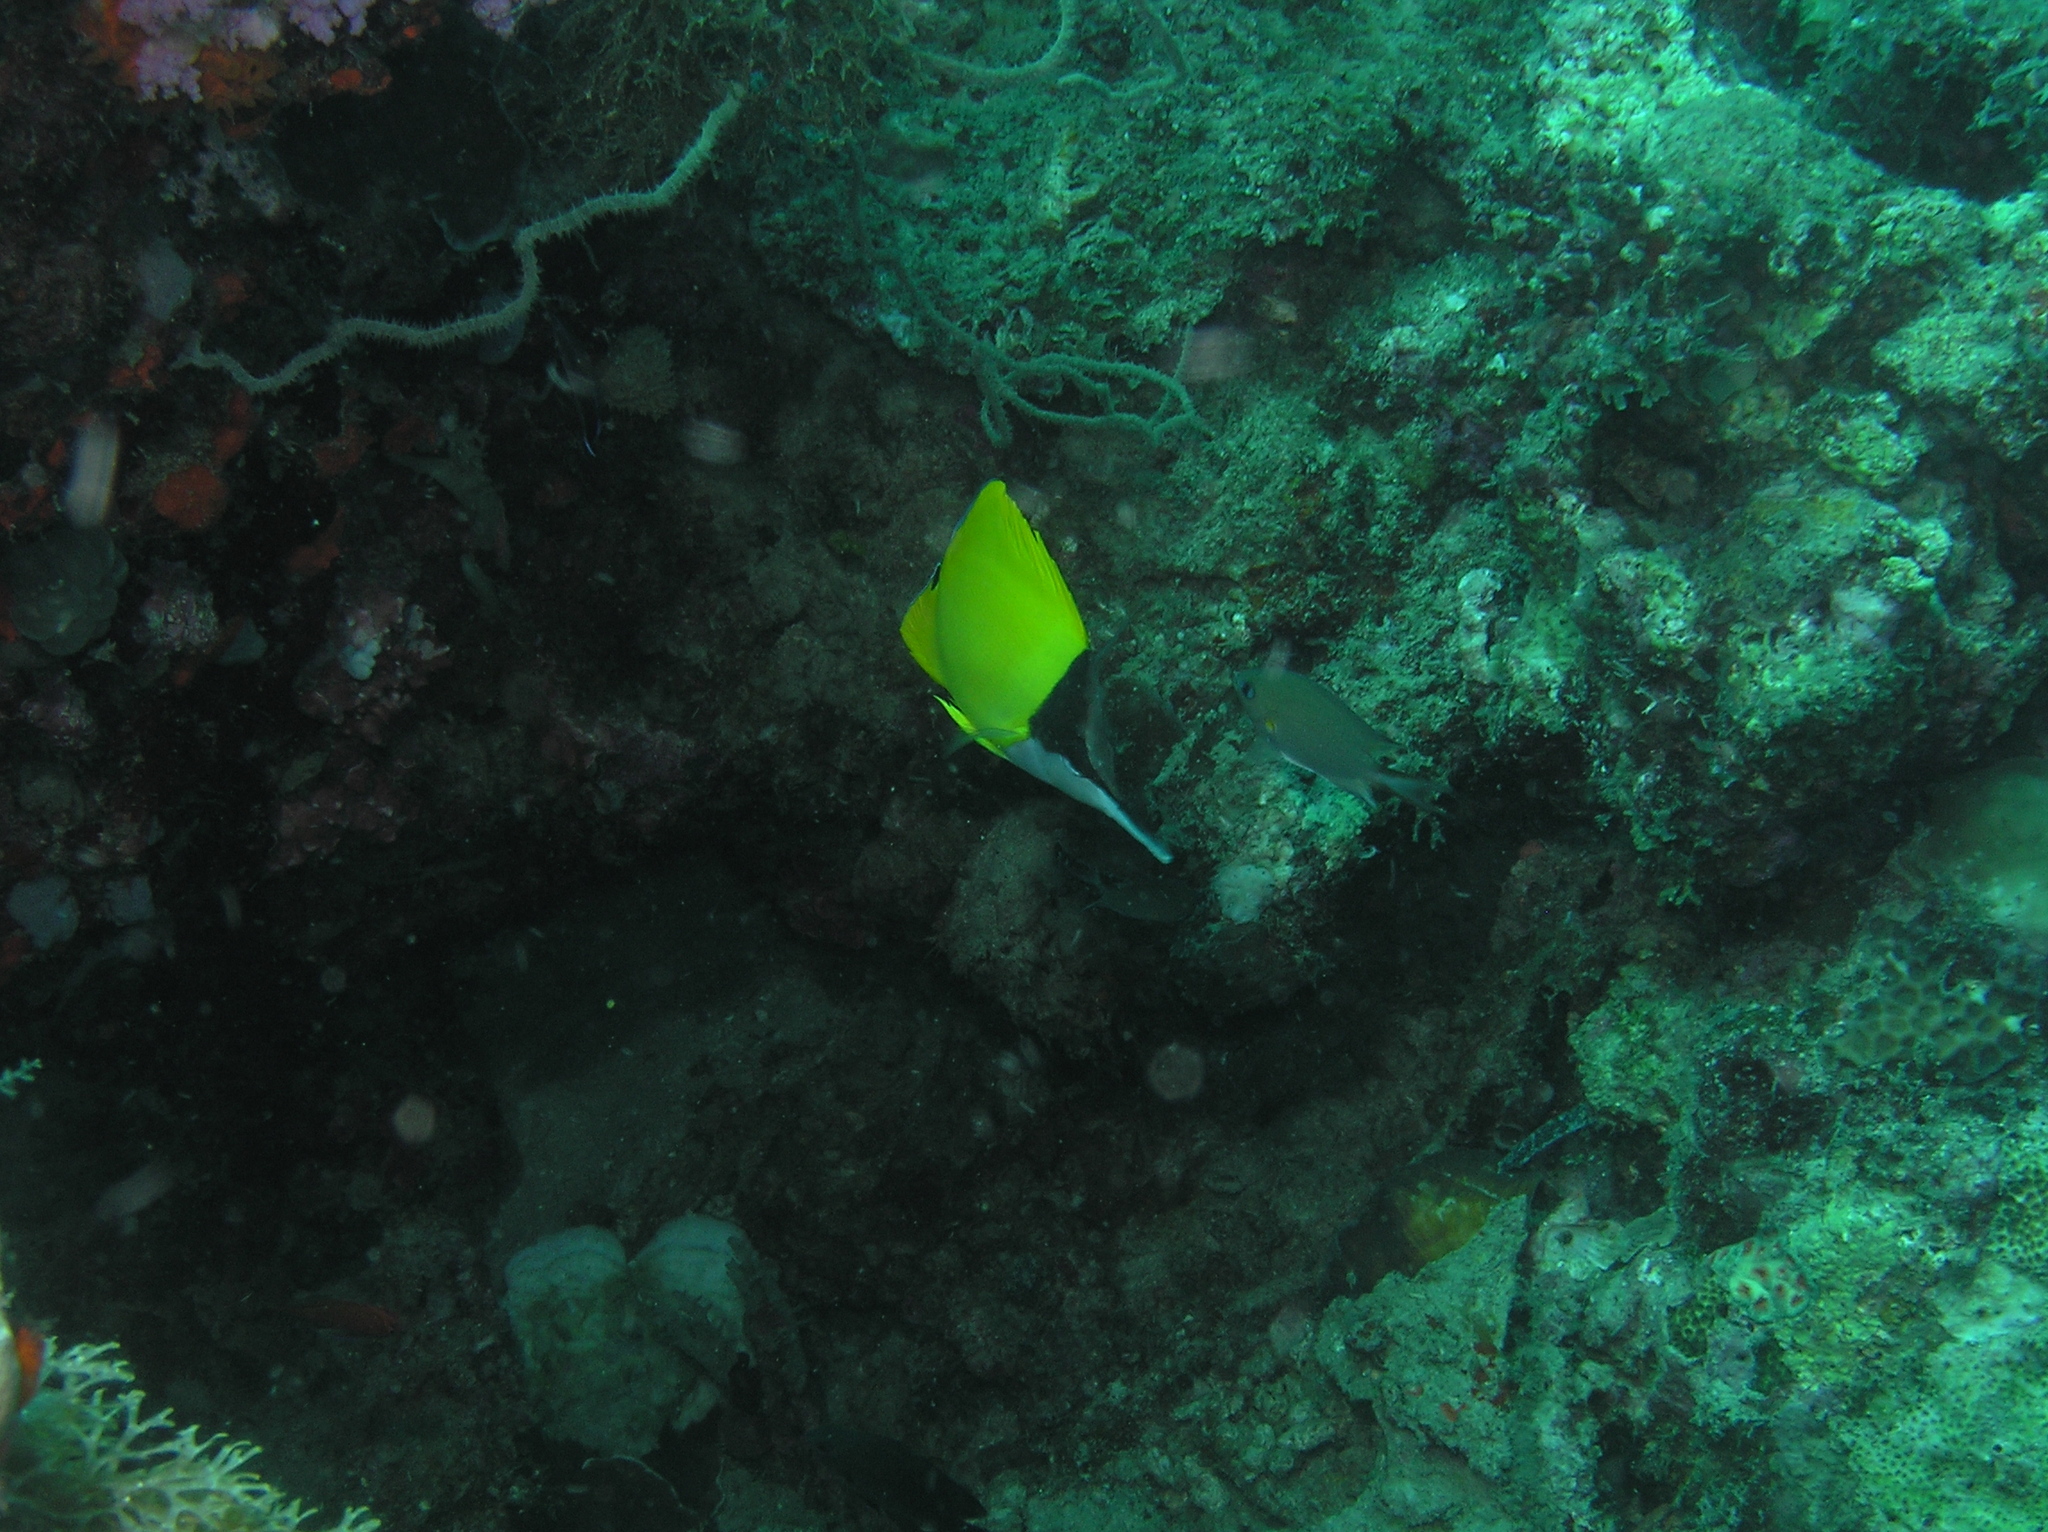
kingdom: Animalia
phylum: Chordata
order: Perciformes
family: Chaetodontidae
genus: Forcipiger
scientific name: Forcipiger
